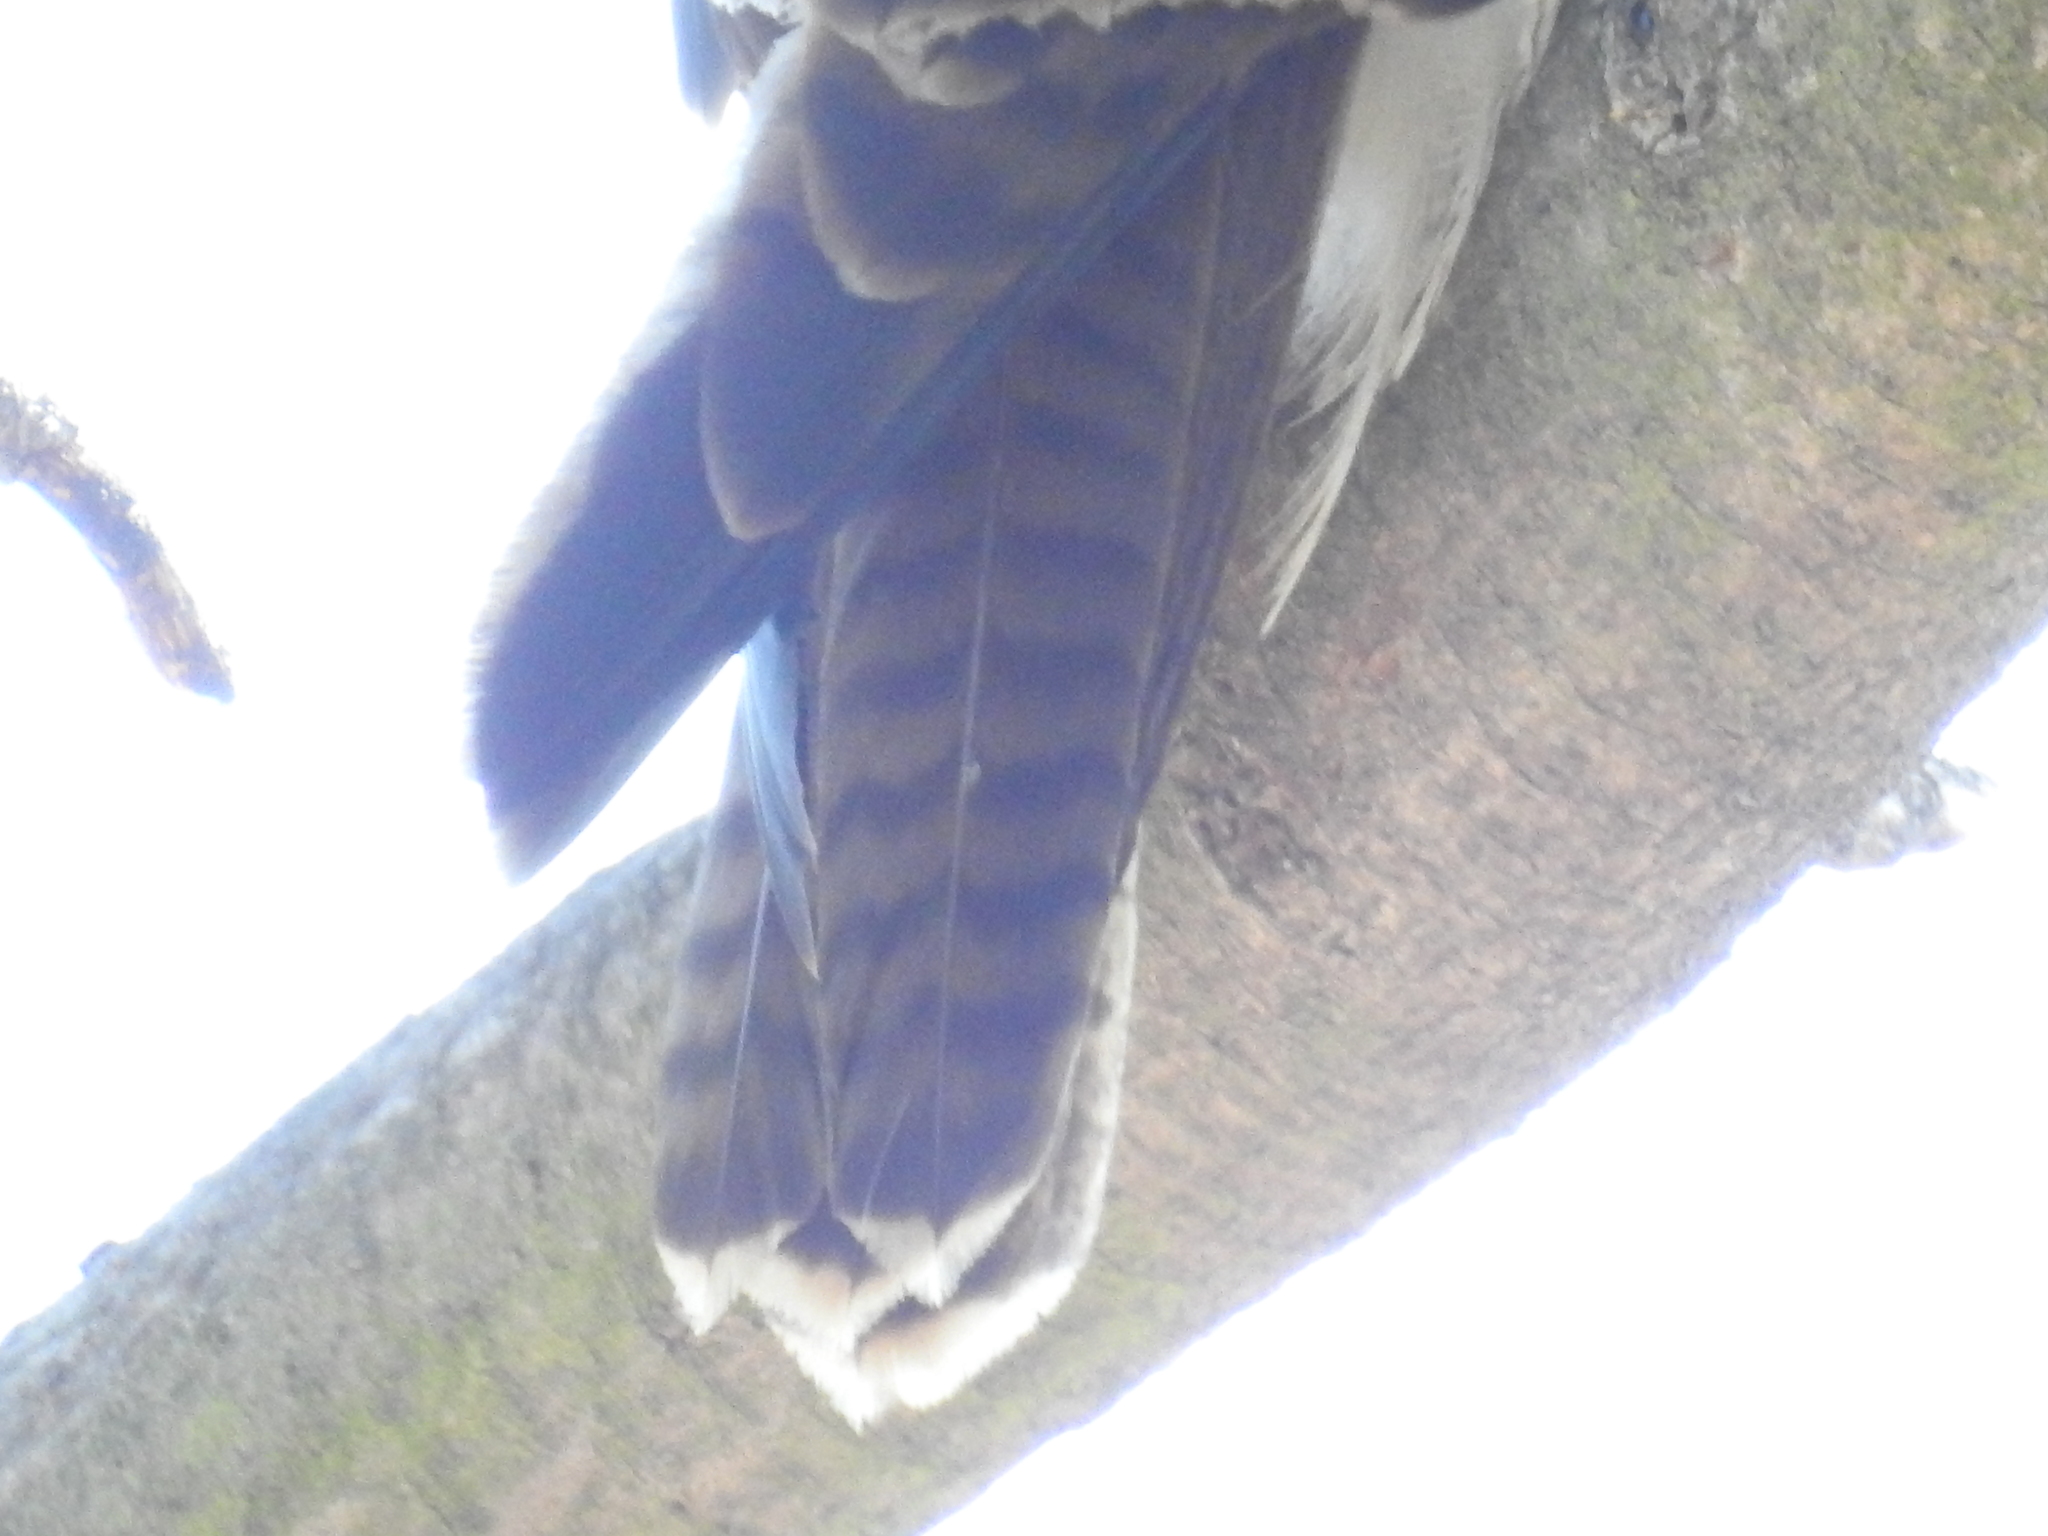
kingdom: Animalia
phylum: Chordata
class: Aves
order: Accipitriformes
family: Accipitridae
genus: Buteo
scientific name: Buteo jamaicensis
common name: Red-tailed hawk
